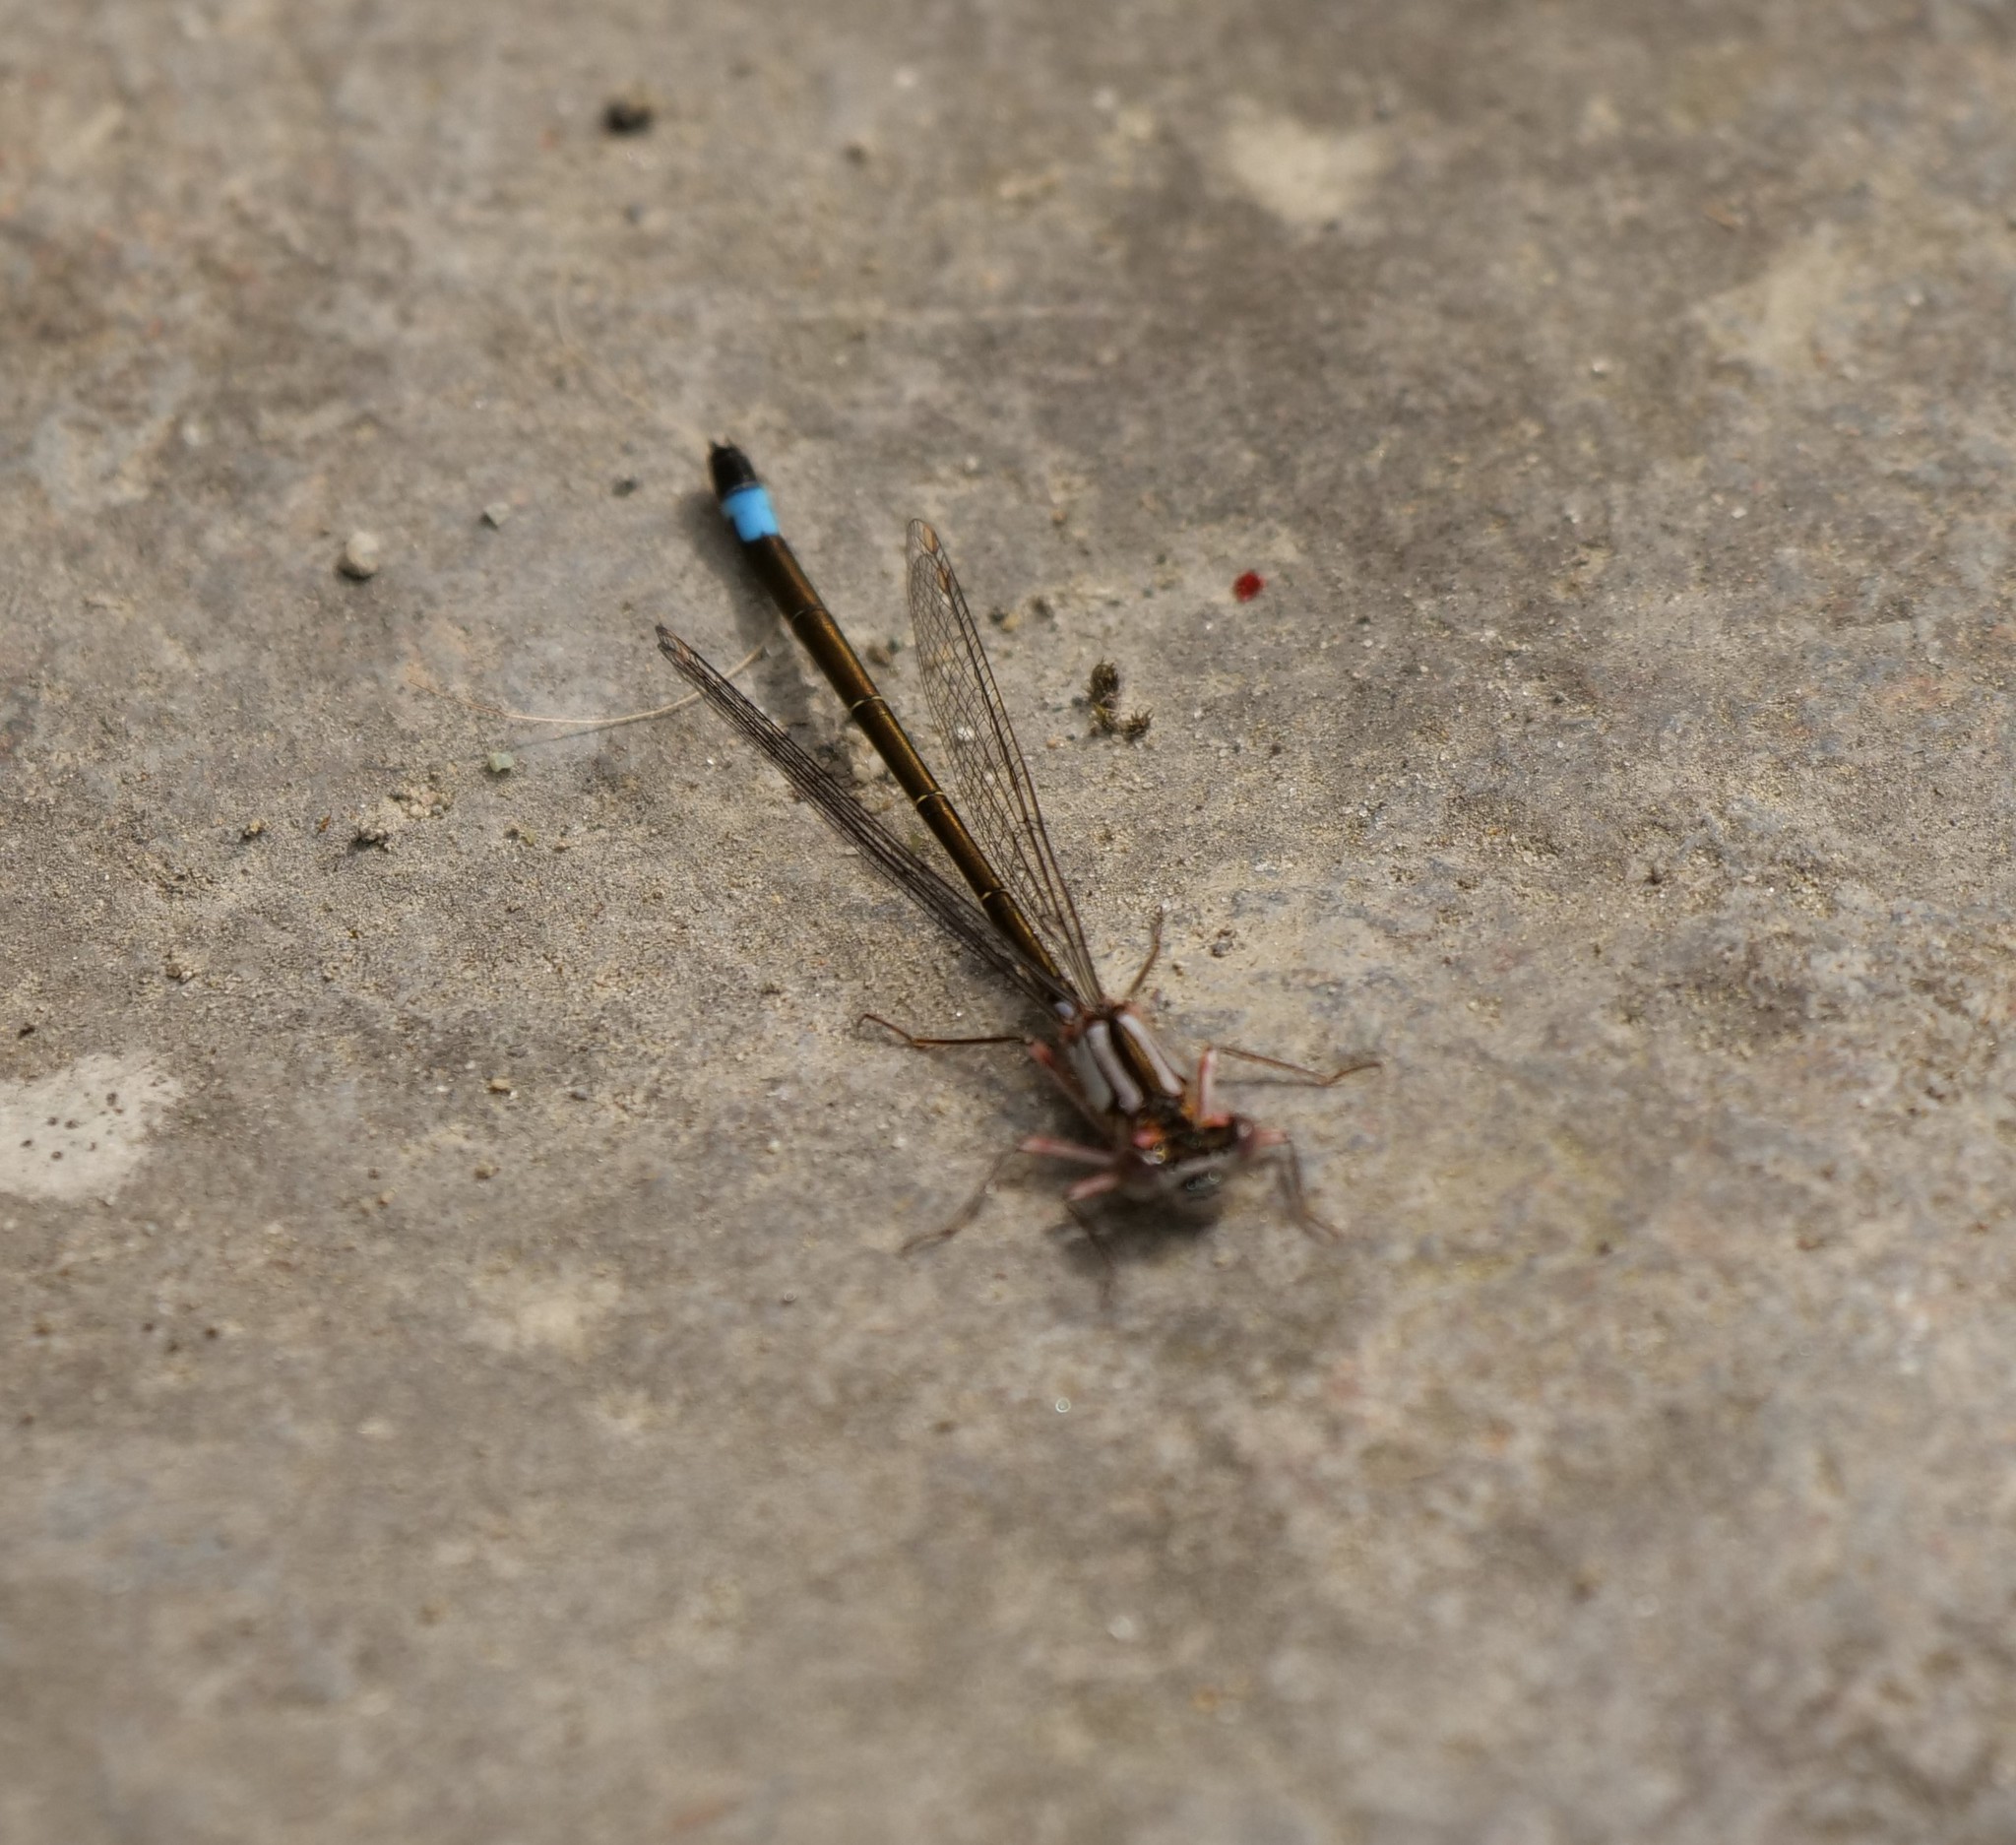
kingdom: Animalia
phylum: Arthropoda
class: Insecta
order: Odonata
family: Coenagrionidae
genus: Ischnura
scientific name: Ischnura cervula
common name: Pacific forktail
